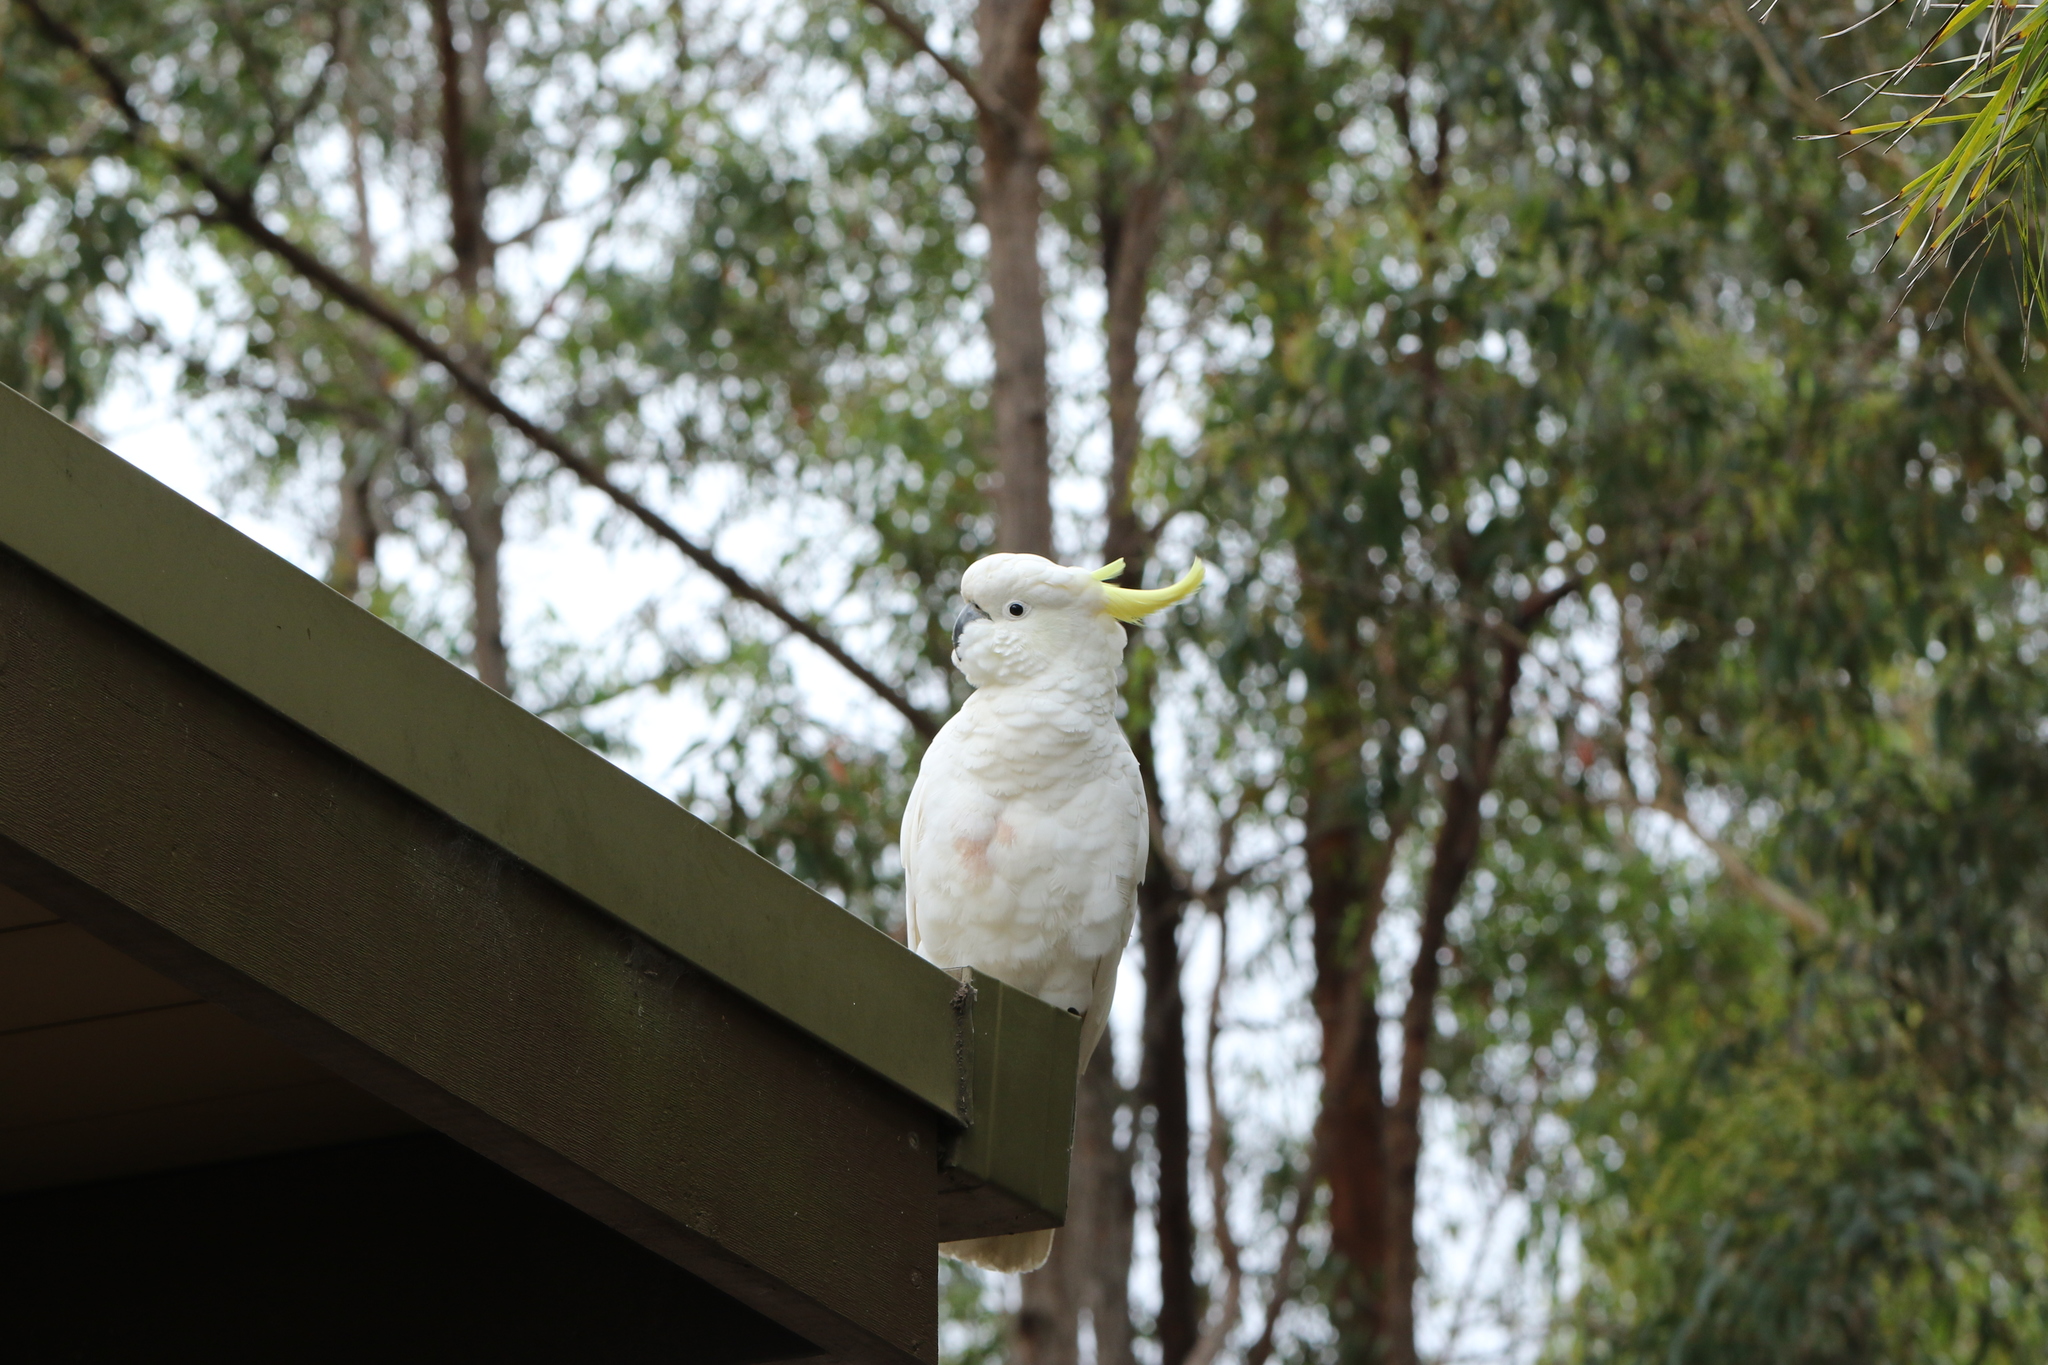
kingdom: Animalia
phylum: Chordata
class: Aves
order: Psittaciformes
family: Psittacidae
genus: Cacatua
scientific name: Cacatua galerita
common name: Sulphur-crested cockatoo
